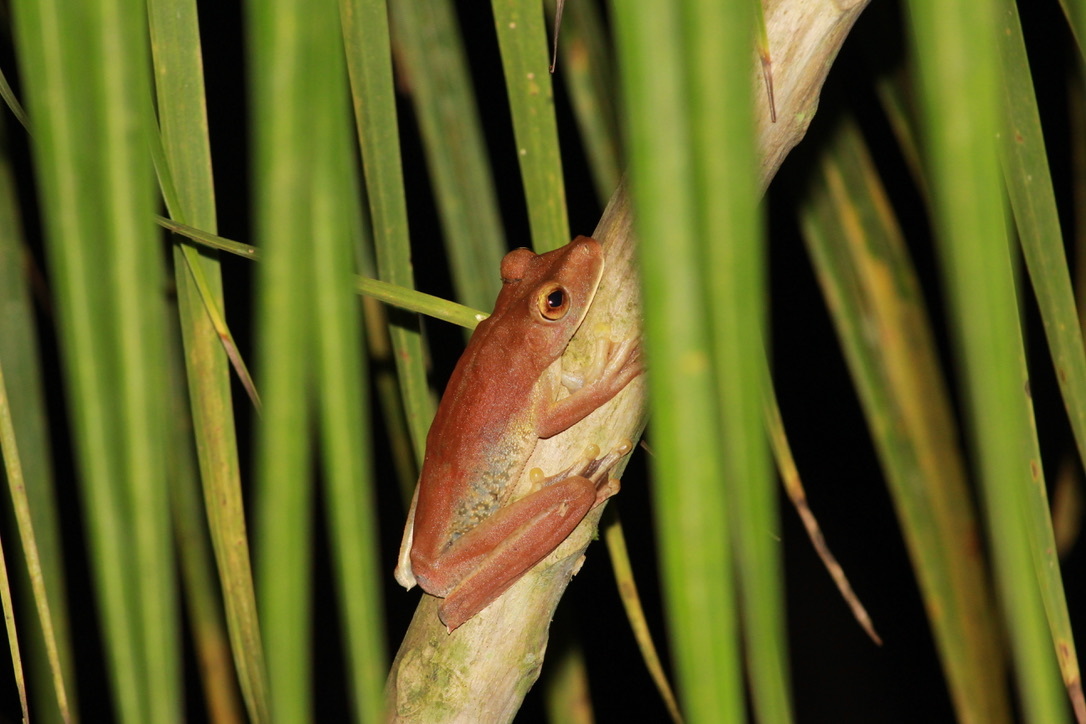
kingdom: Animalia
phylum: Chordata
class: Amphibia
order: Anura
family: Hylidae
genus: Boana
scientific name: Boana boans
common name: Giant gladiator treefrog
